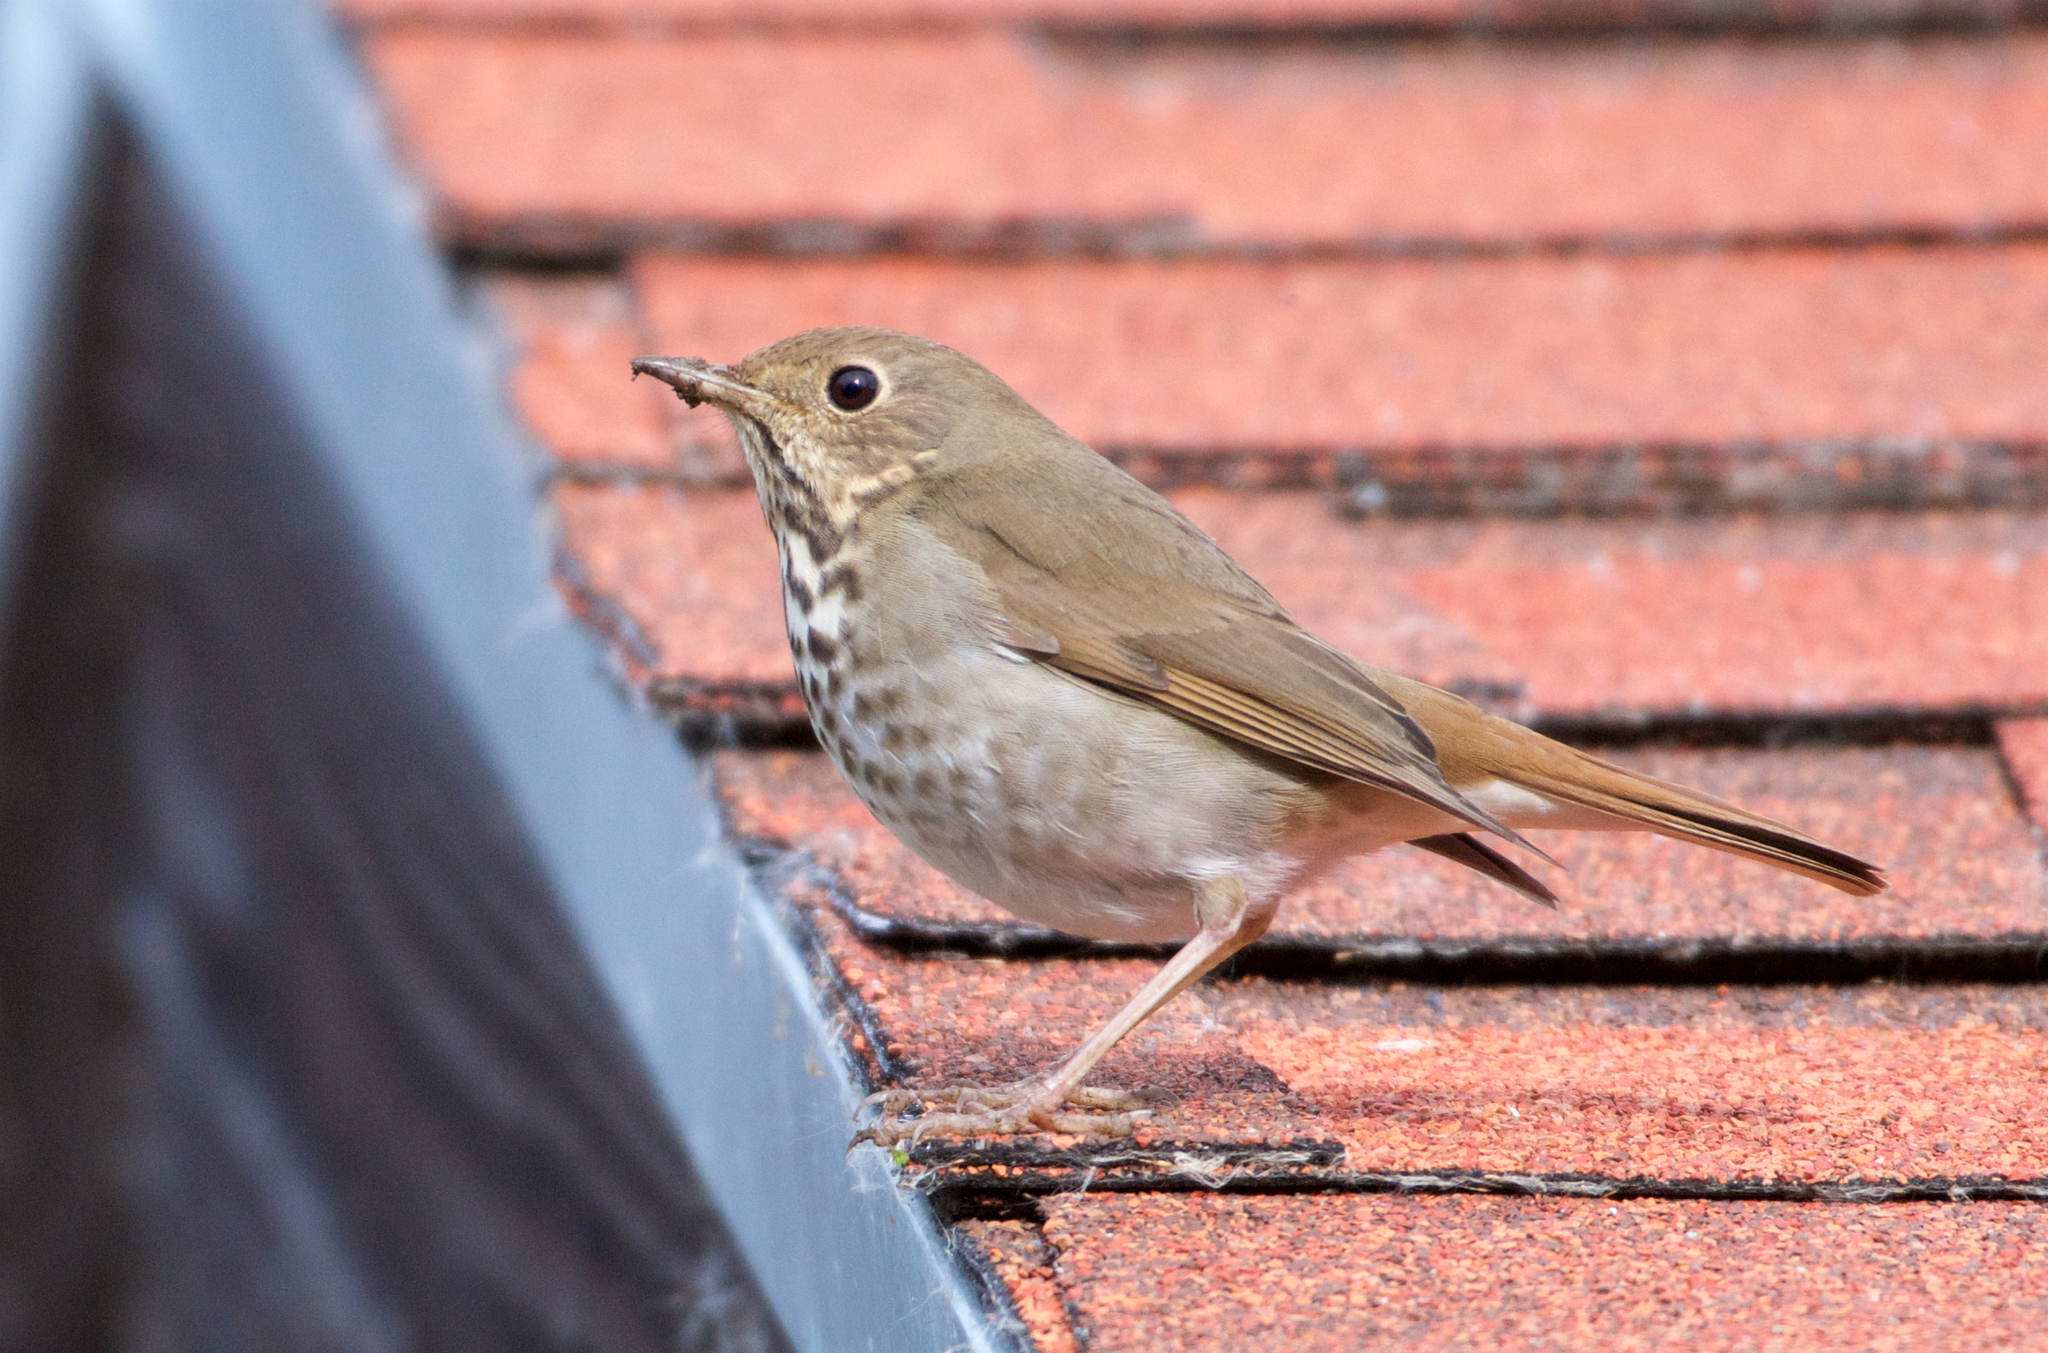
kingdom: Animalia
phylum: Chordata
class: Aves
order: Passeriformes
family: Turdidae
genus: Catharus
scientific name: Catharus guttatus
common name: Hermit thrush
